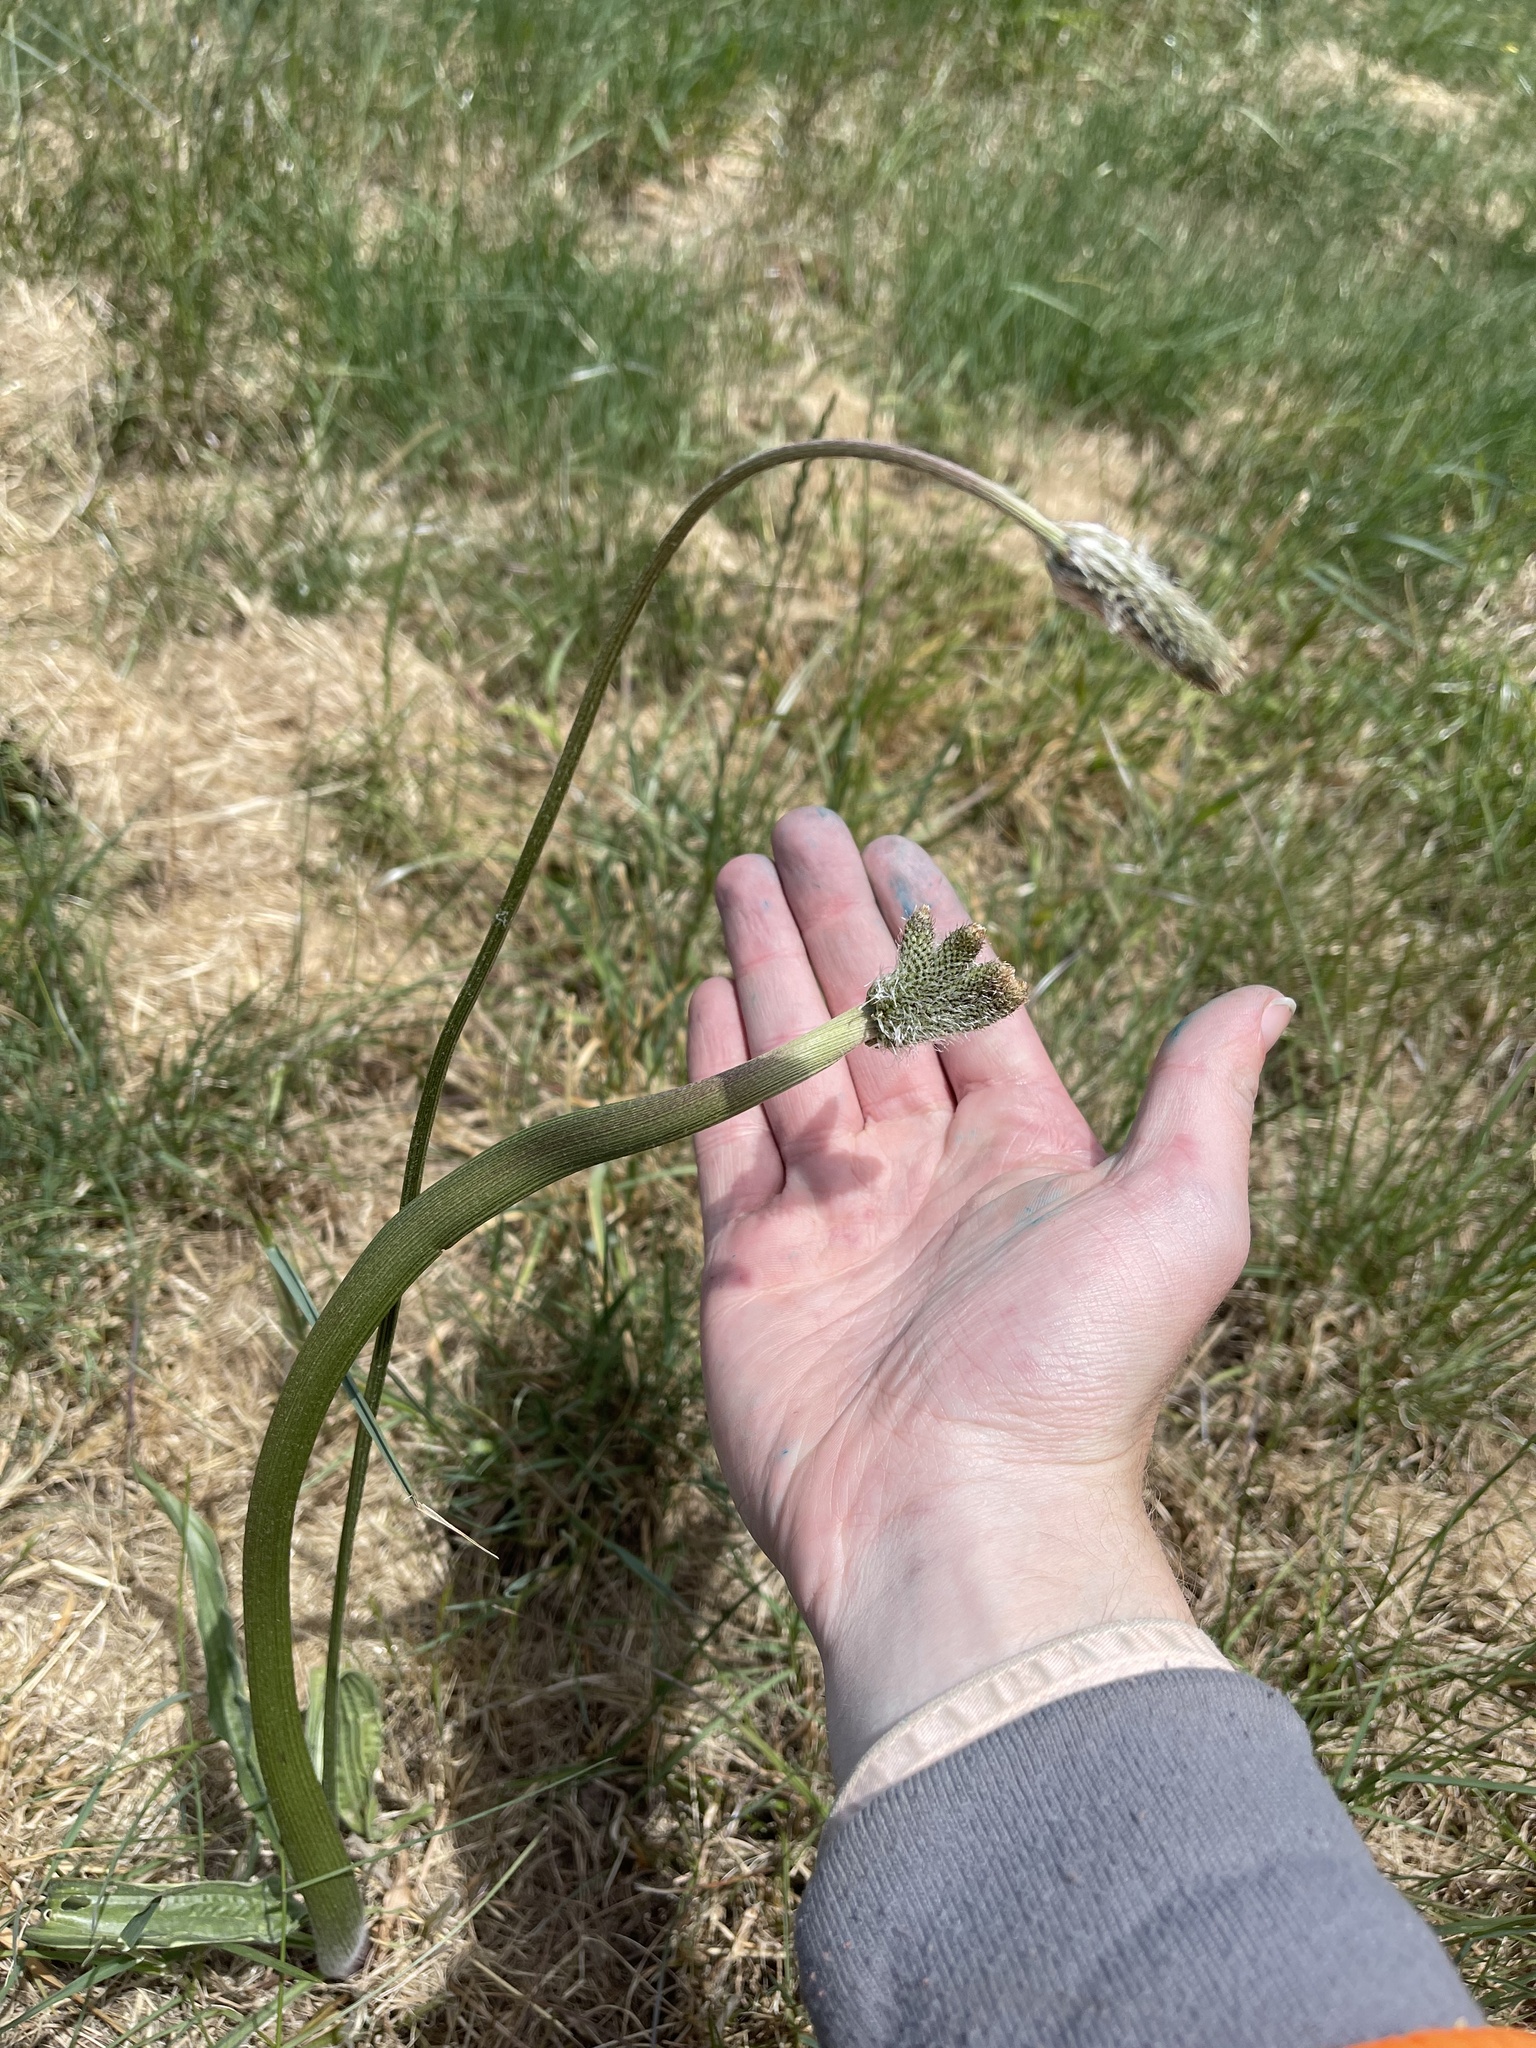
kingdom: Plantae
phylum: Tracheophyta
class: Magnoliopsida
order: Lamiales
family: Plantaginaceae
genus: Plantago
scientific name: Plantago lanceolata
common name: Ribwort plantain
